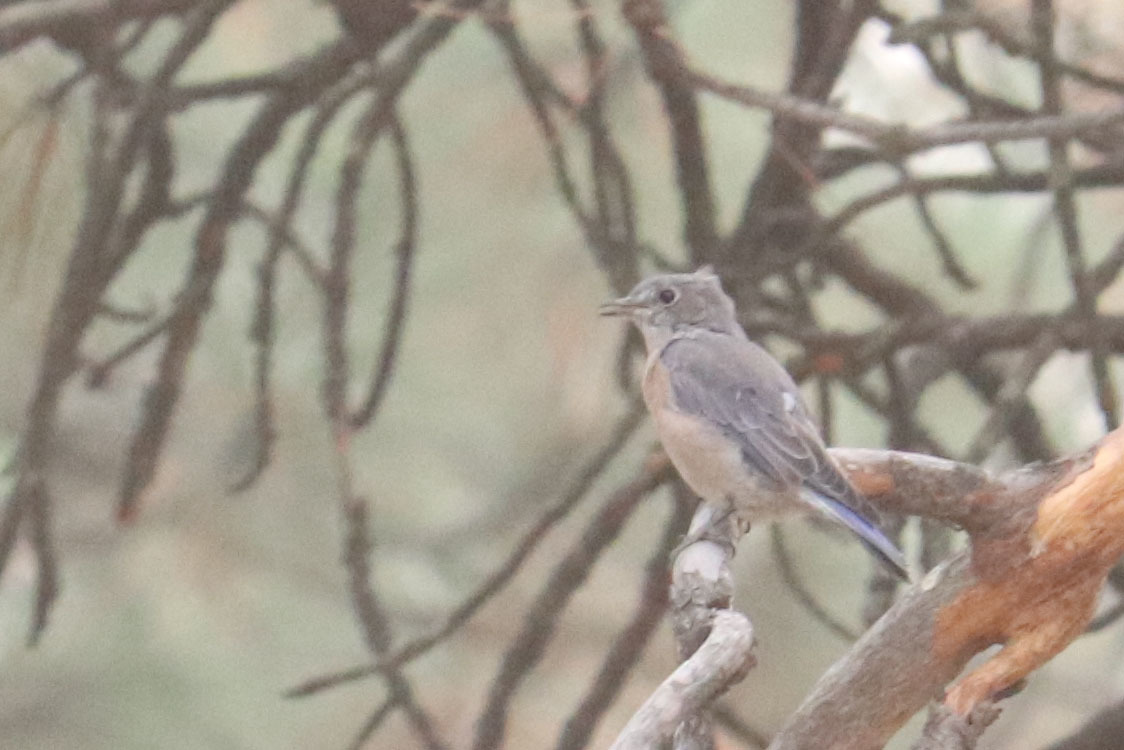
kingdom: Animalia
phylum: Chordata
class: Aves
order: Passeriformes
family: Turdidae
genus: Sialia
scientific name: Sialia mexicana
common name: Western bluebird
